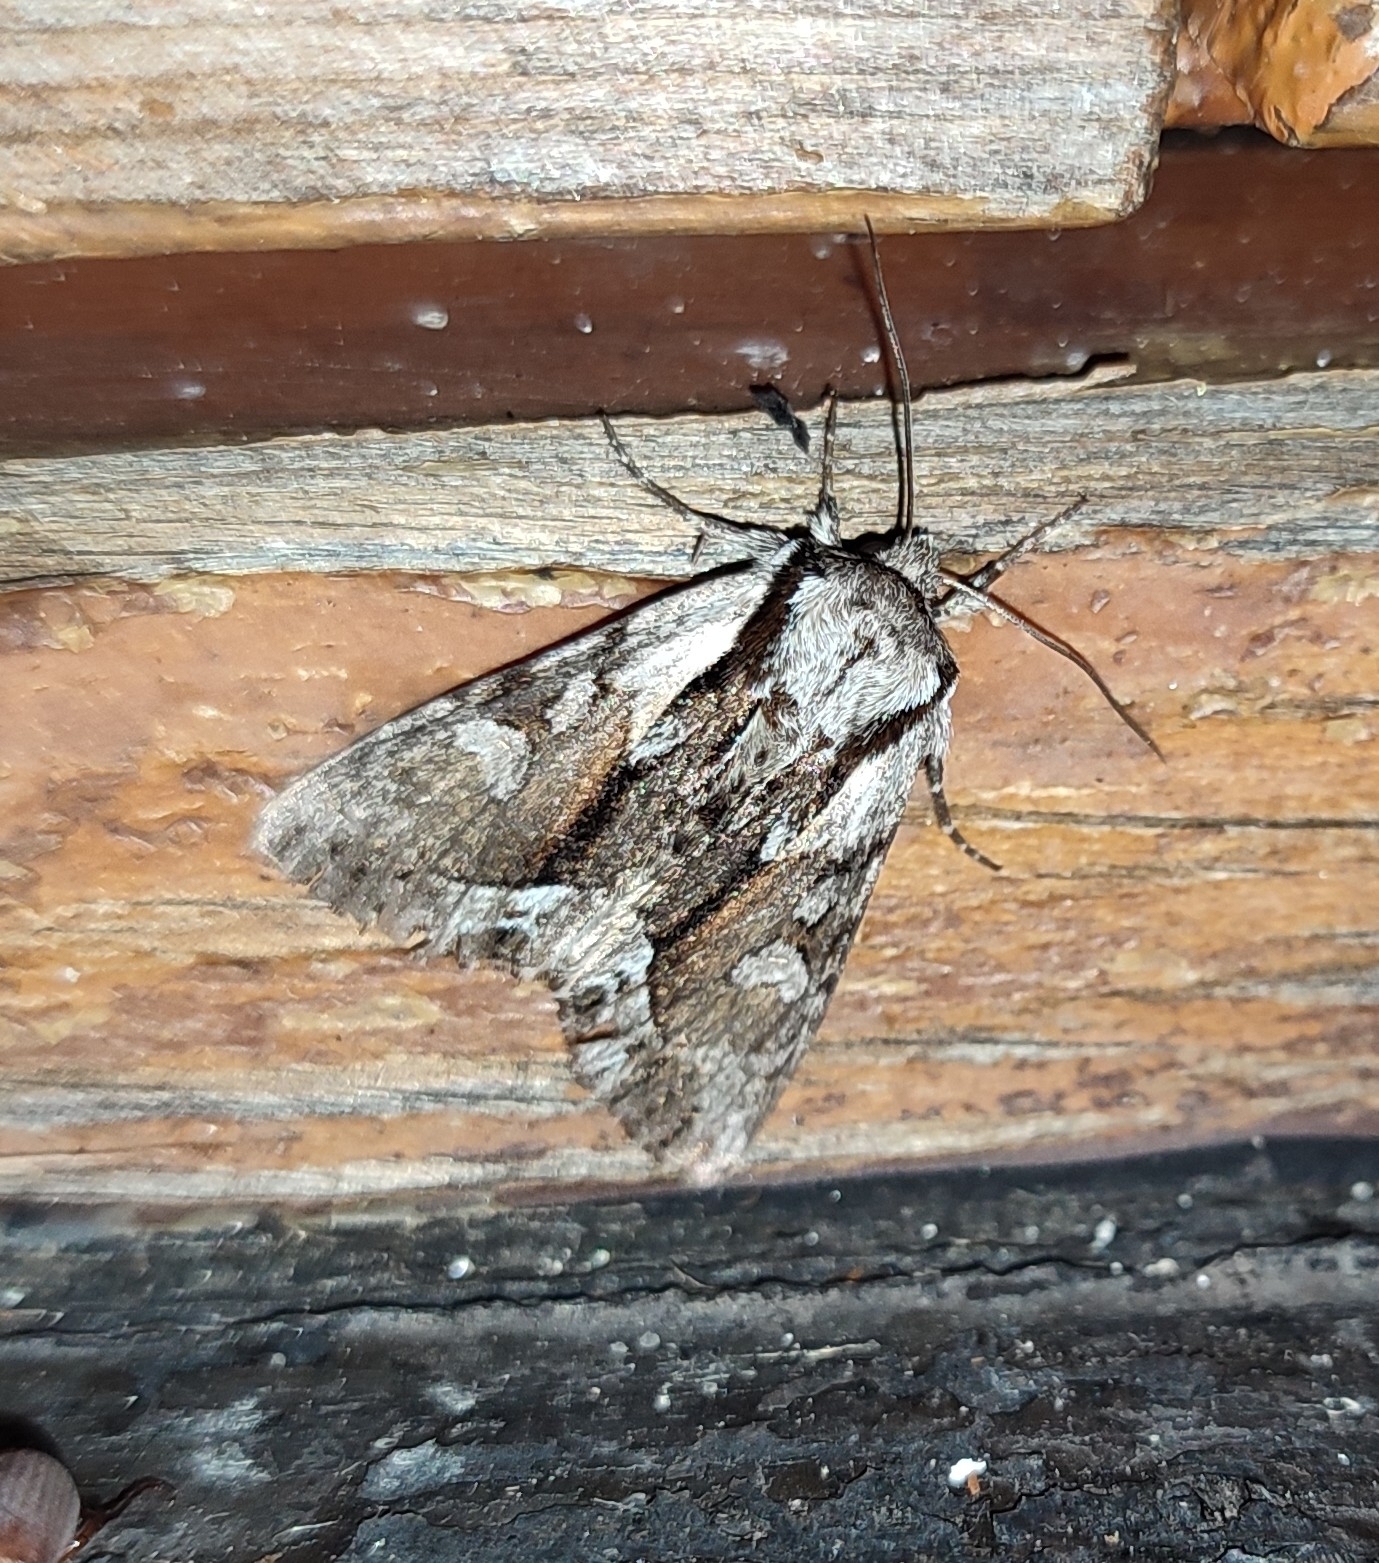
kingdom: Animalia
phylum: Arthropoda
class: Insecta
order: Lepidoptera
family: Noctuidae
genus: Hyppa
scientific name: Hyppa rectilinea
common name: Saxon
